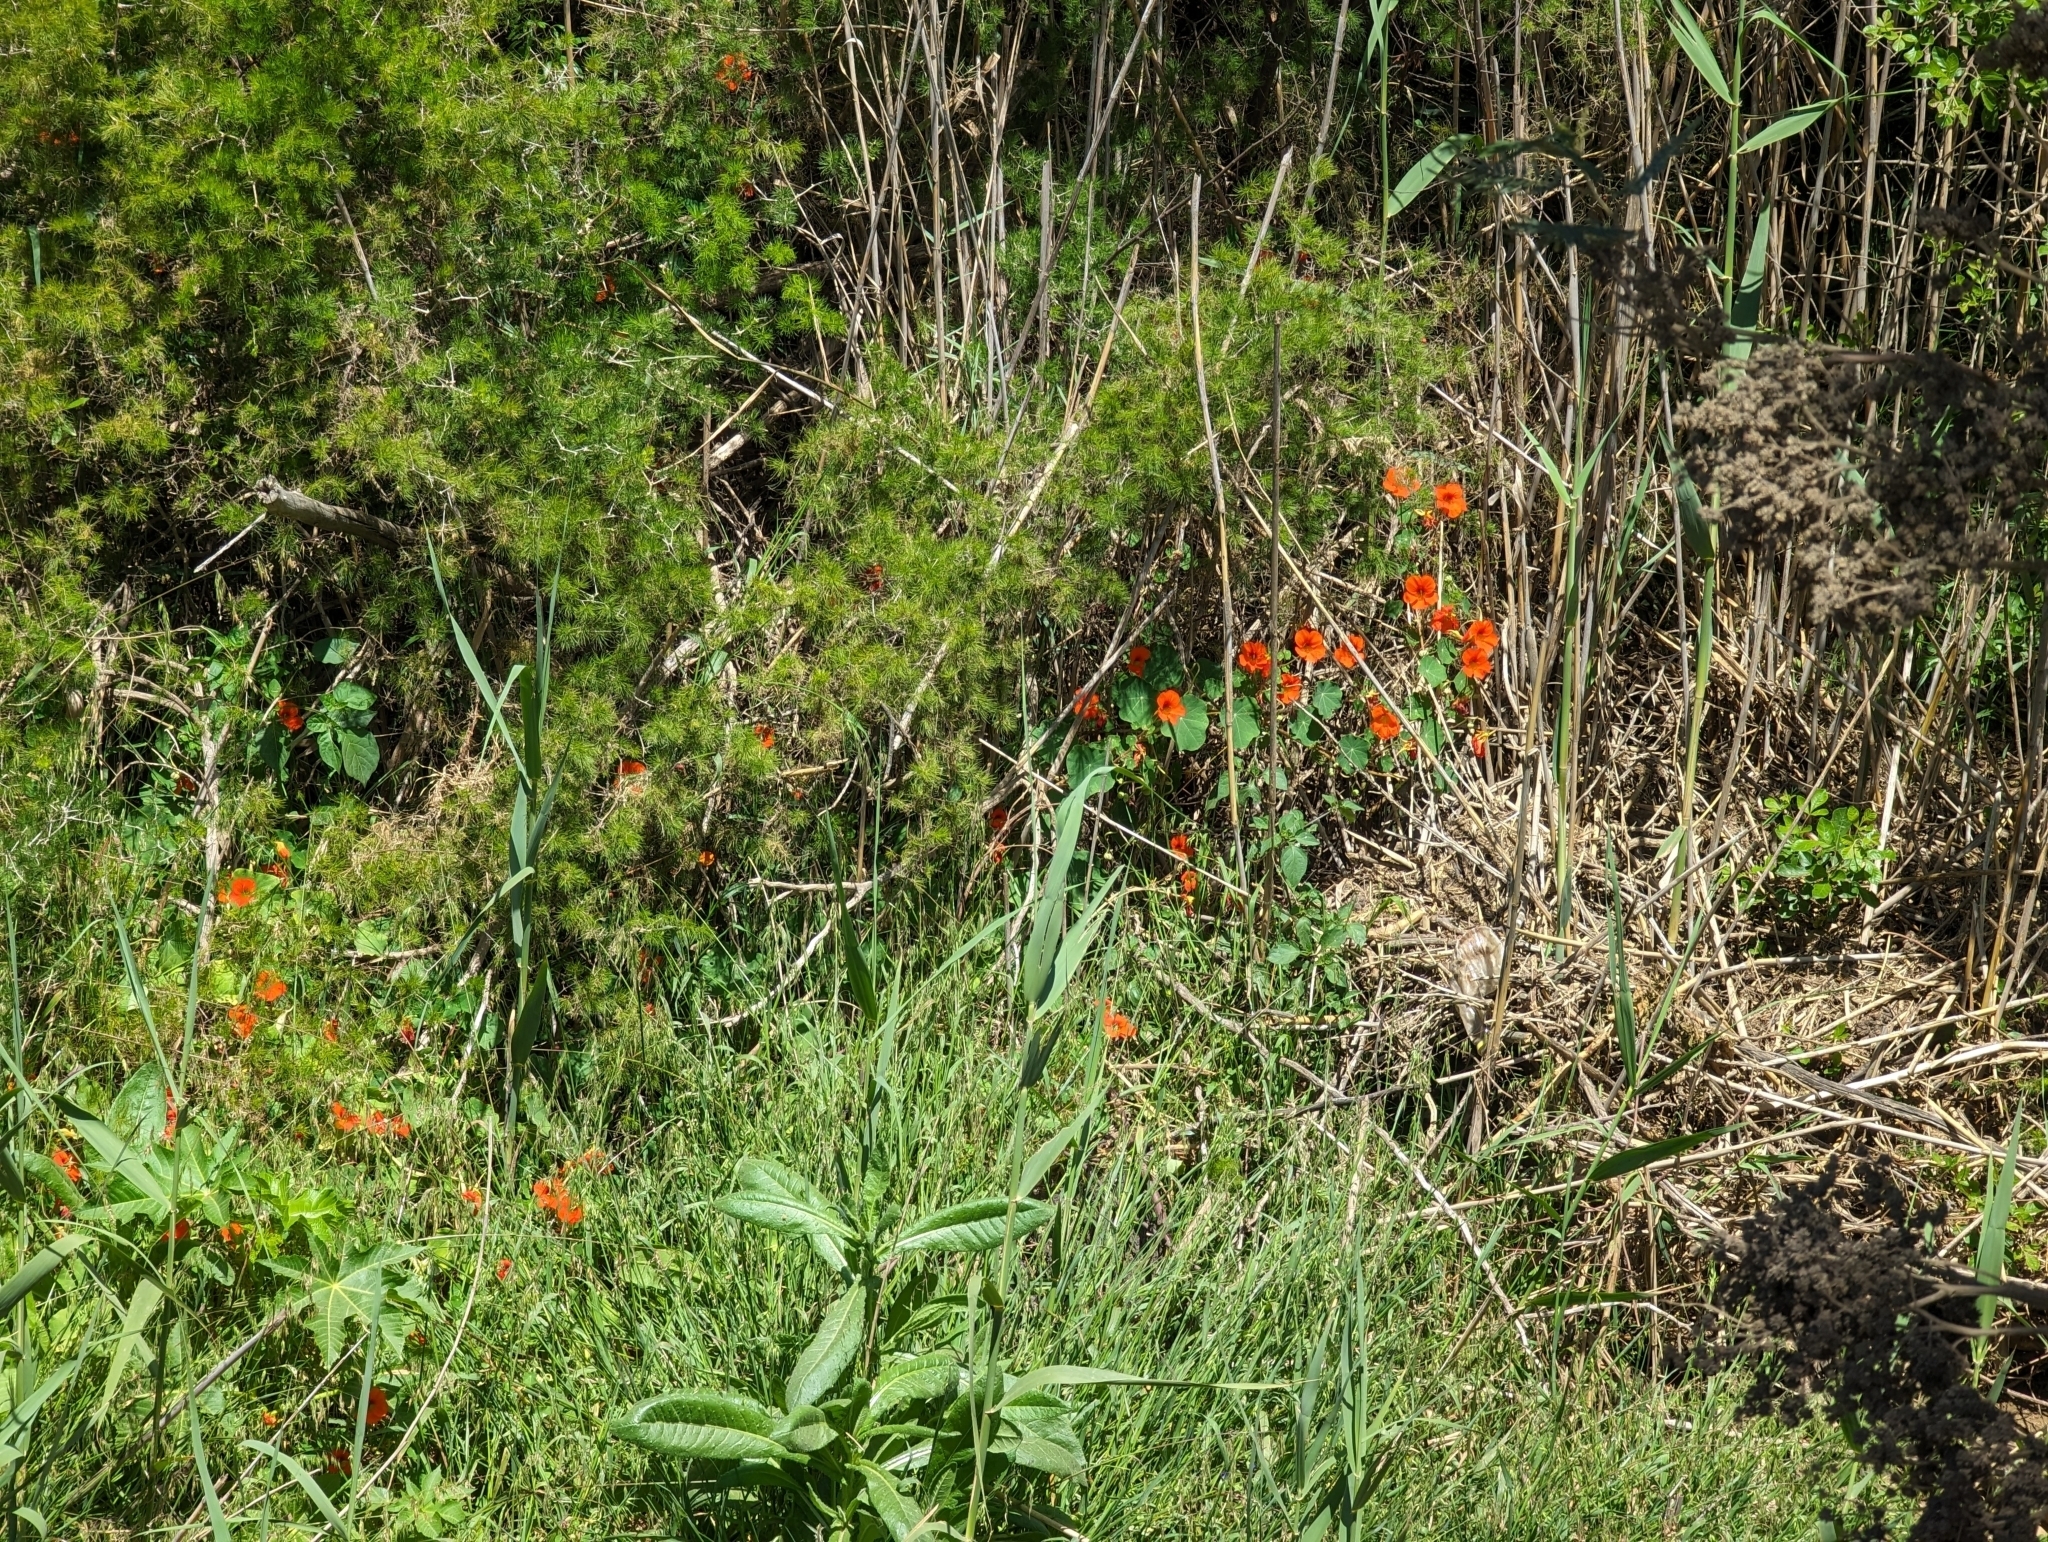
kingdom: Plantae
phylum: Tracheophyta
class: Magnoliopsida
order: Brassicales
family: Tropaeolaceae
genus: Tropaeolum
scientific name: Tropaeolum majus
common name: Nasturtium
